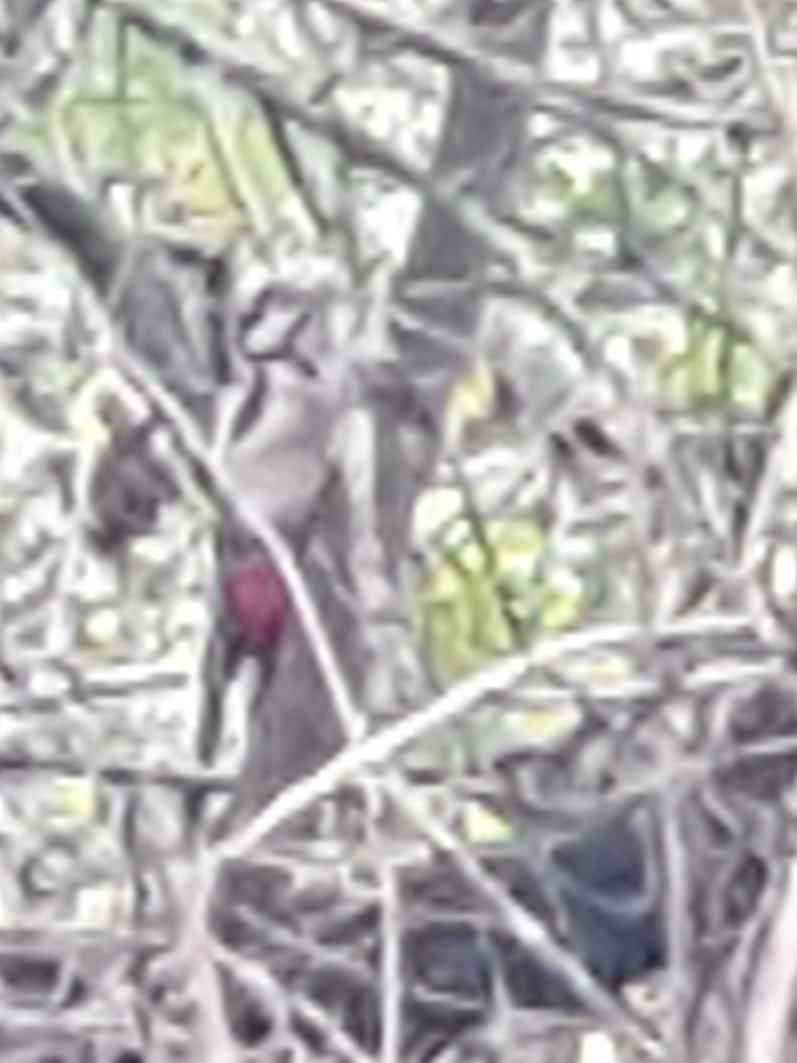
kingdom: Animalia
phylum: Chordata
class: Aves
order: Piciformes
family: Picidae
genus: Dendrocopos
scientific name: Dendrocopos major
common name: Great spotted woodpecker
